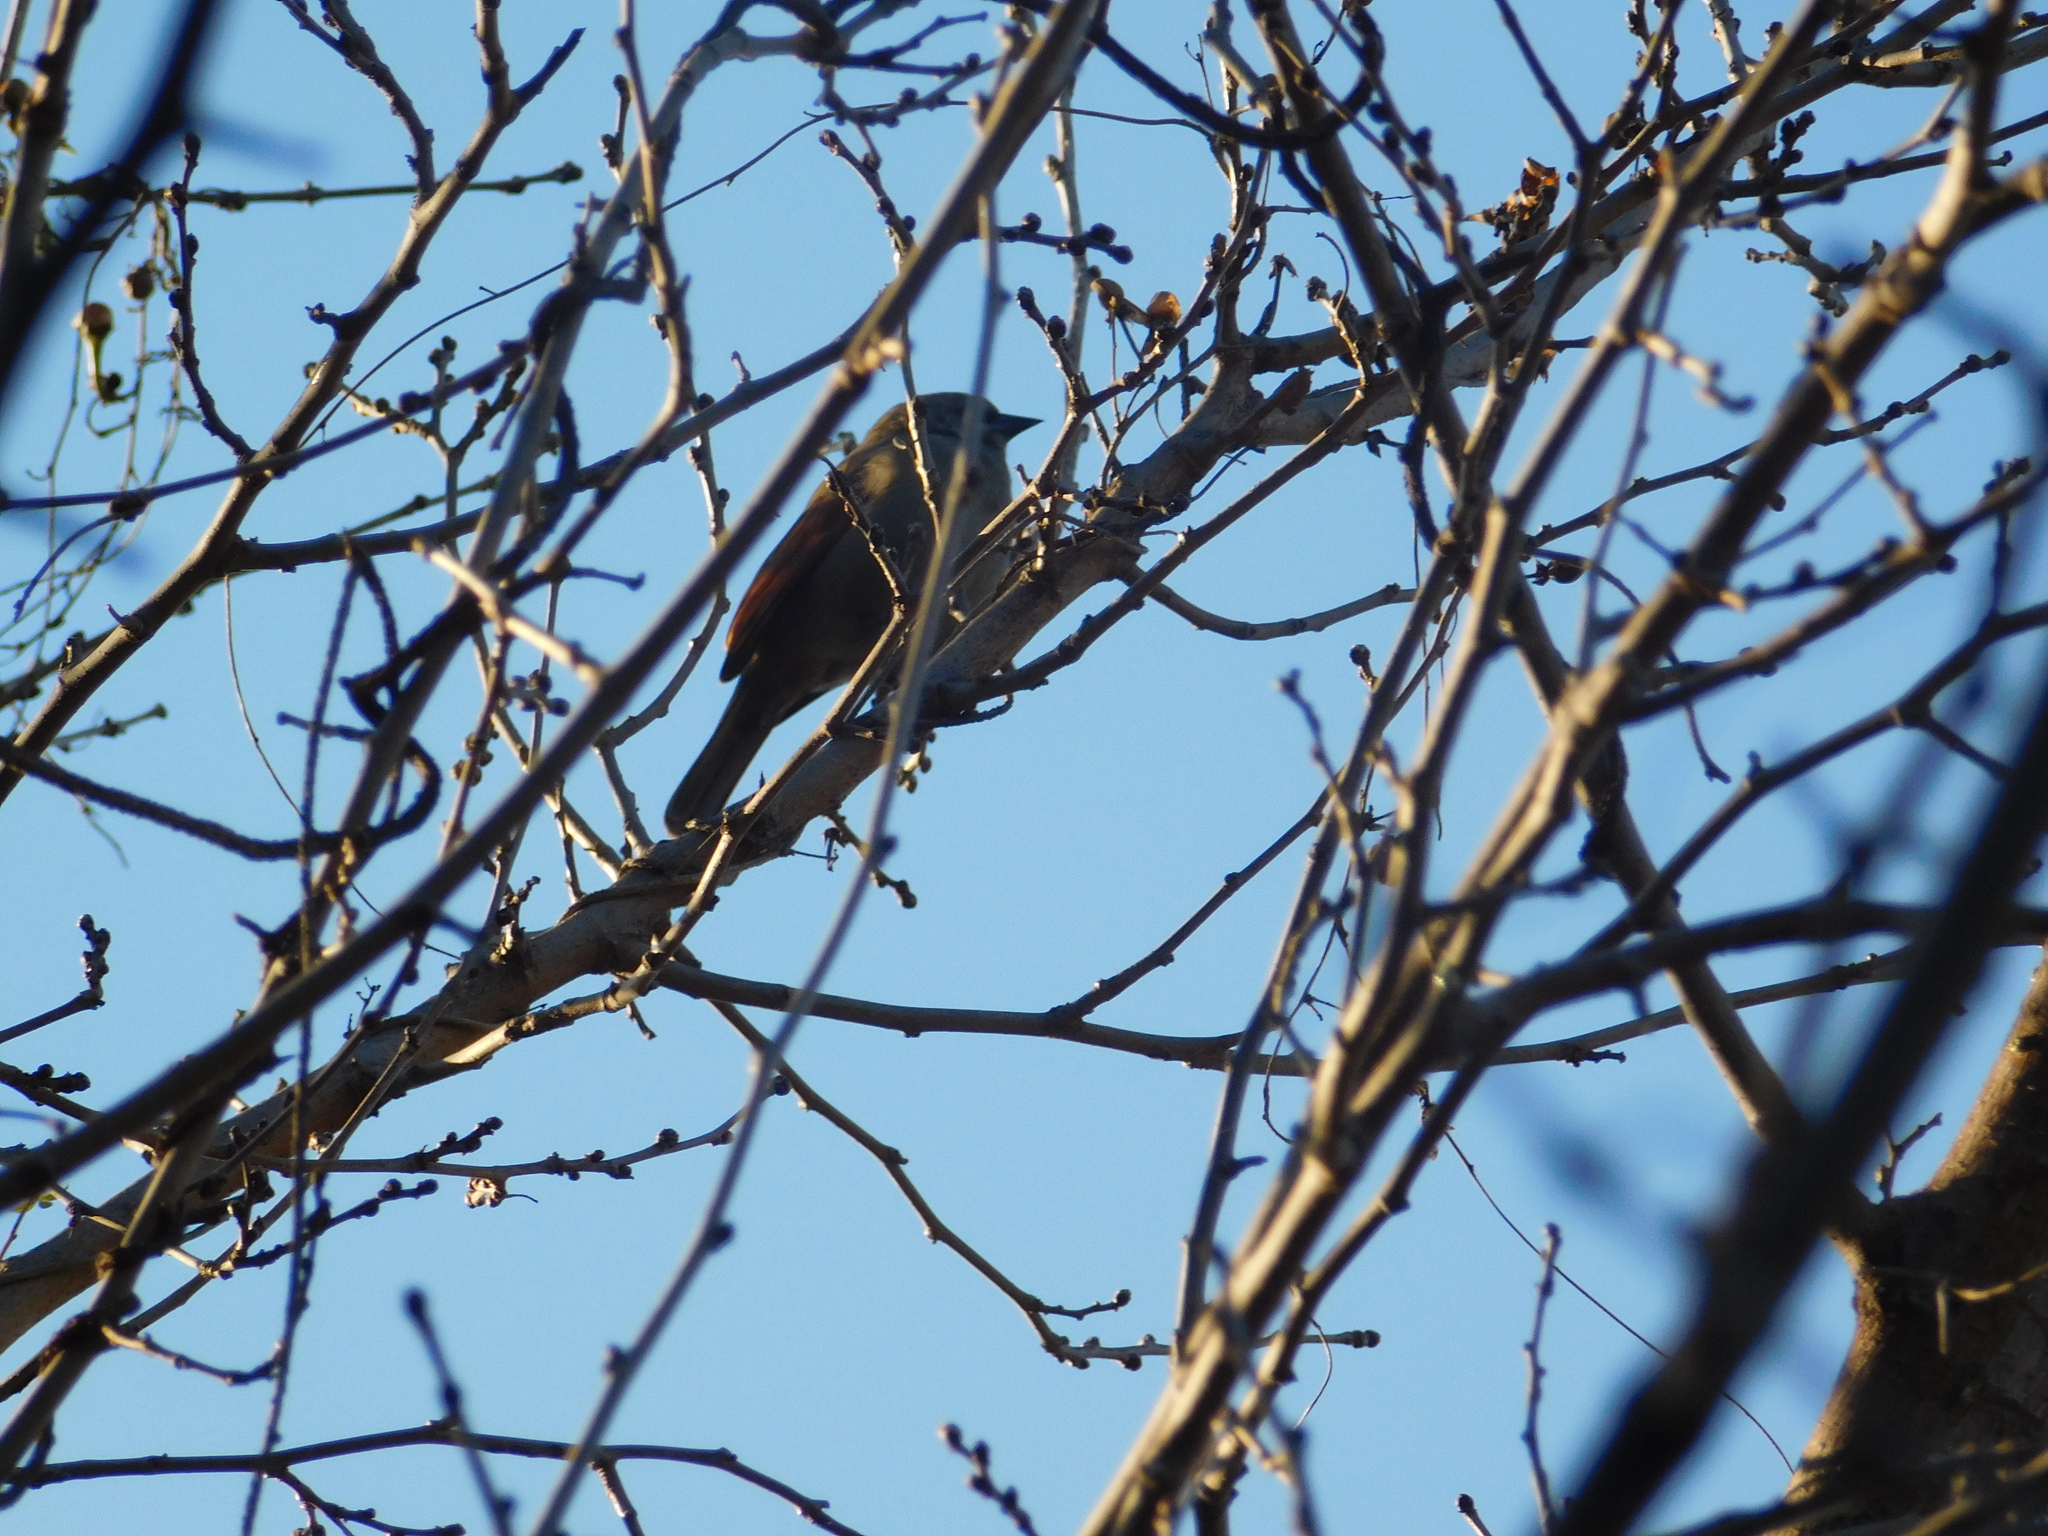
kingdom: Animalia
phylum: Chordata
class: Aves
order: Passeriformes
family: Icteridae
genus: Agelaioides
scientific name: Agelaioides badius
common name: Baywing
